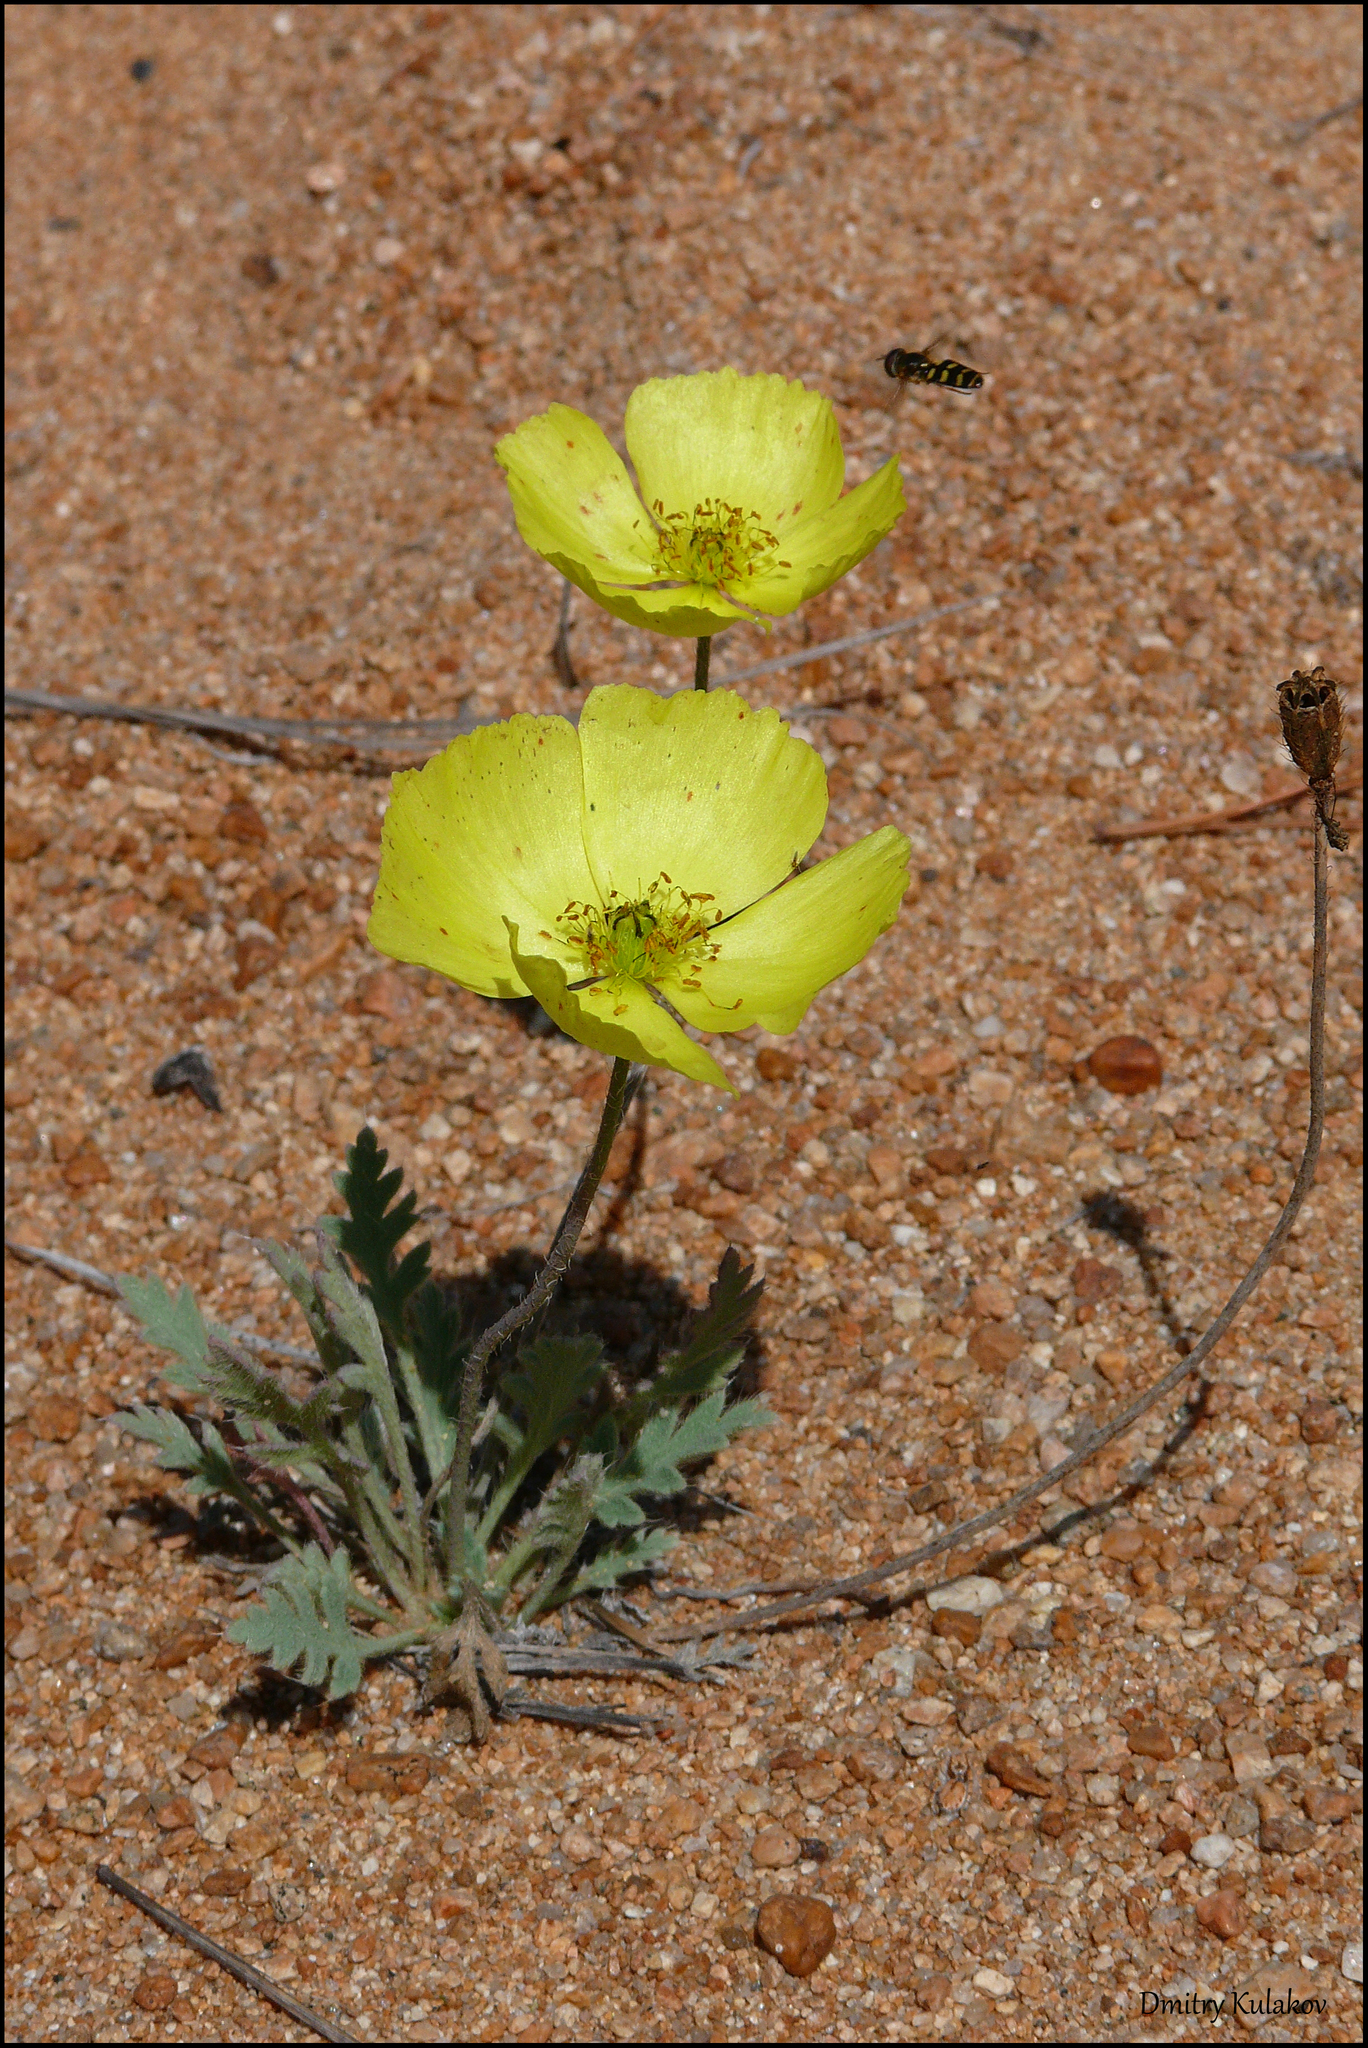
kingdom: Plantae
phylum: Tracheophyta
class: Magnoliopsida
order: Ranunculales
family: Papaveraceae
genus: Papaver
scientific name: Papaver nudicaule
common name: Arctic poppy
